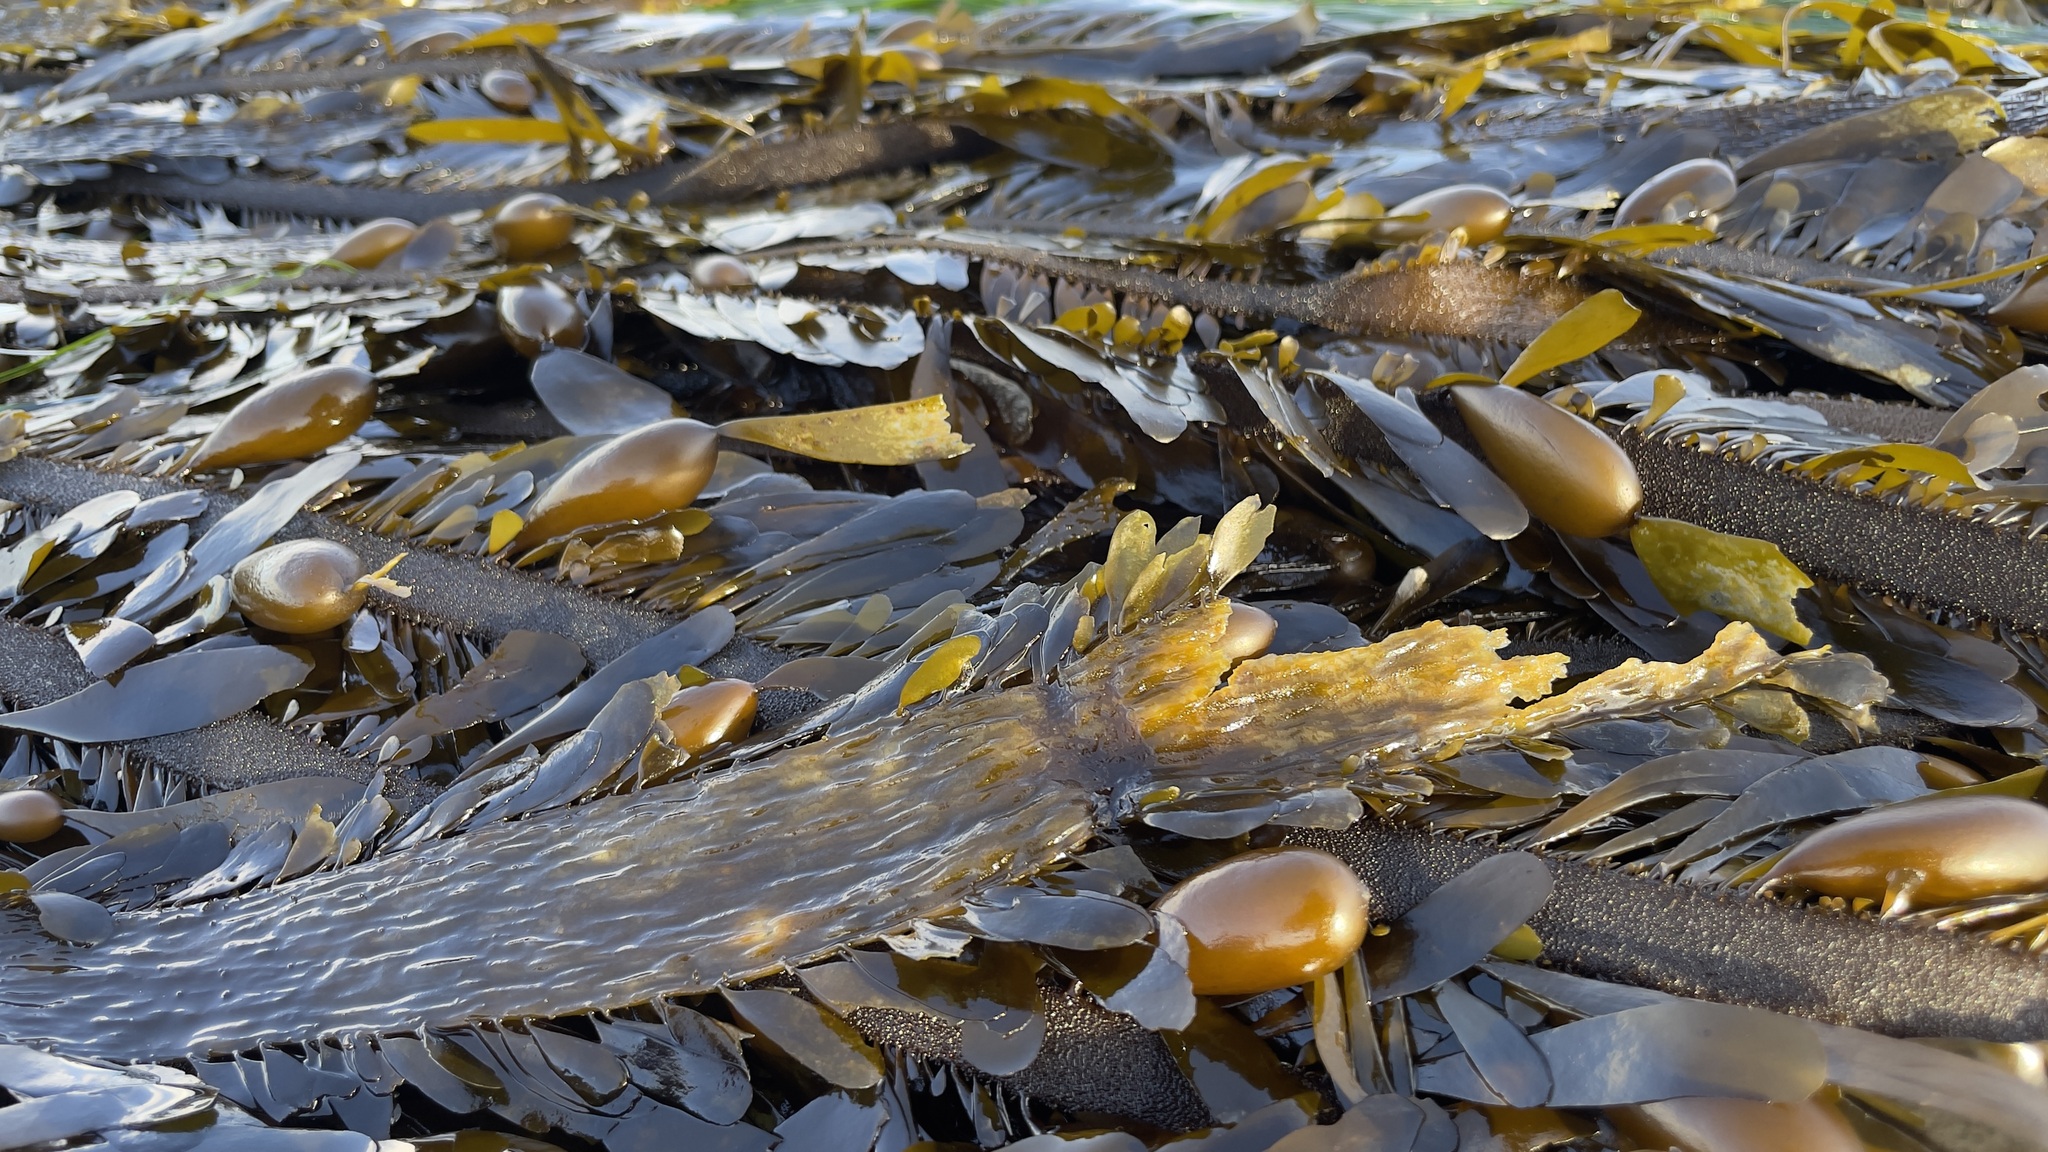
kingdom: Chromista
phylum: Ochrophyta
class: Phaeophyceae
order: Laminariales
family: Lessoniaceae
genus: Egregia
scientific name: Egregia menziesii
